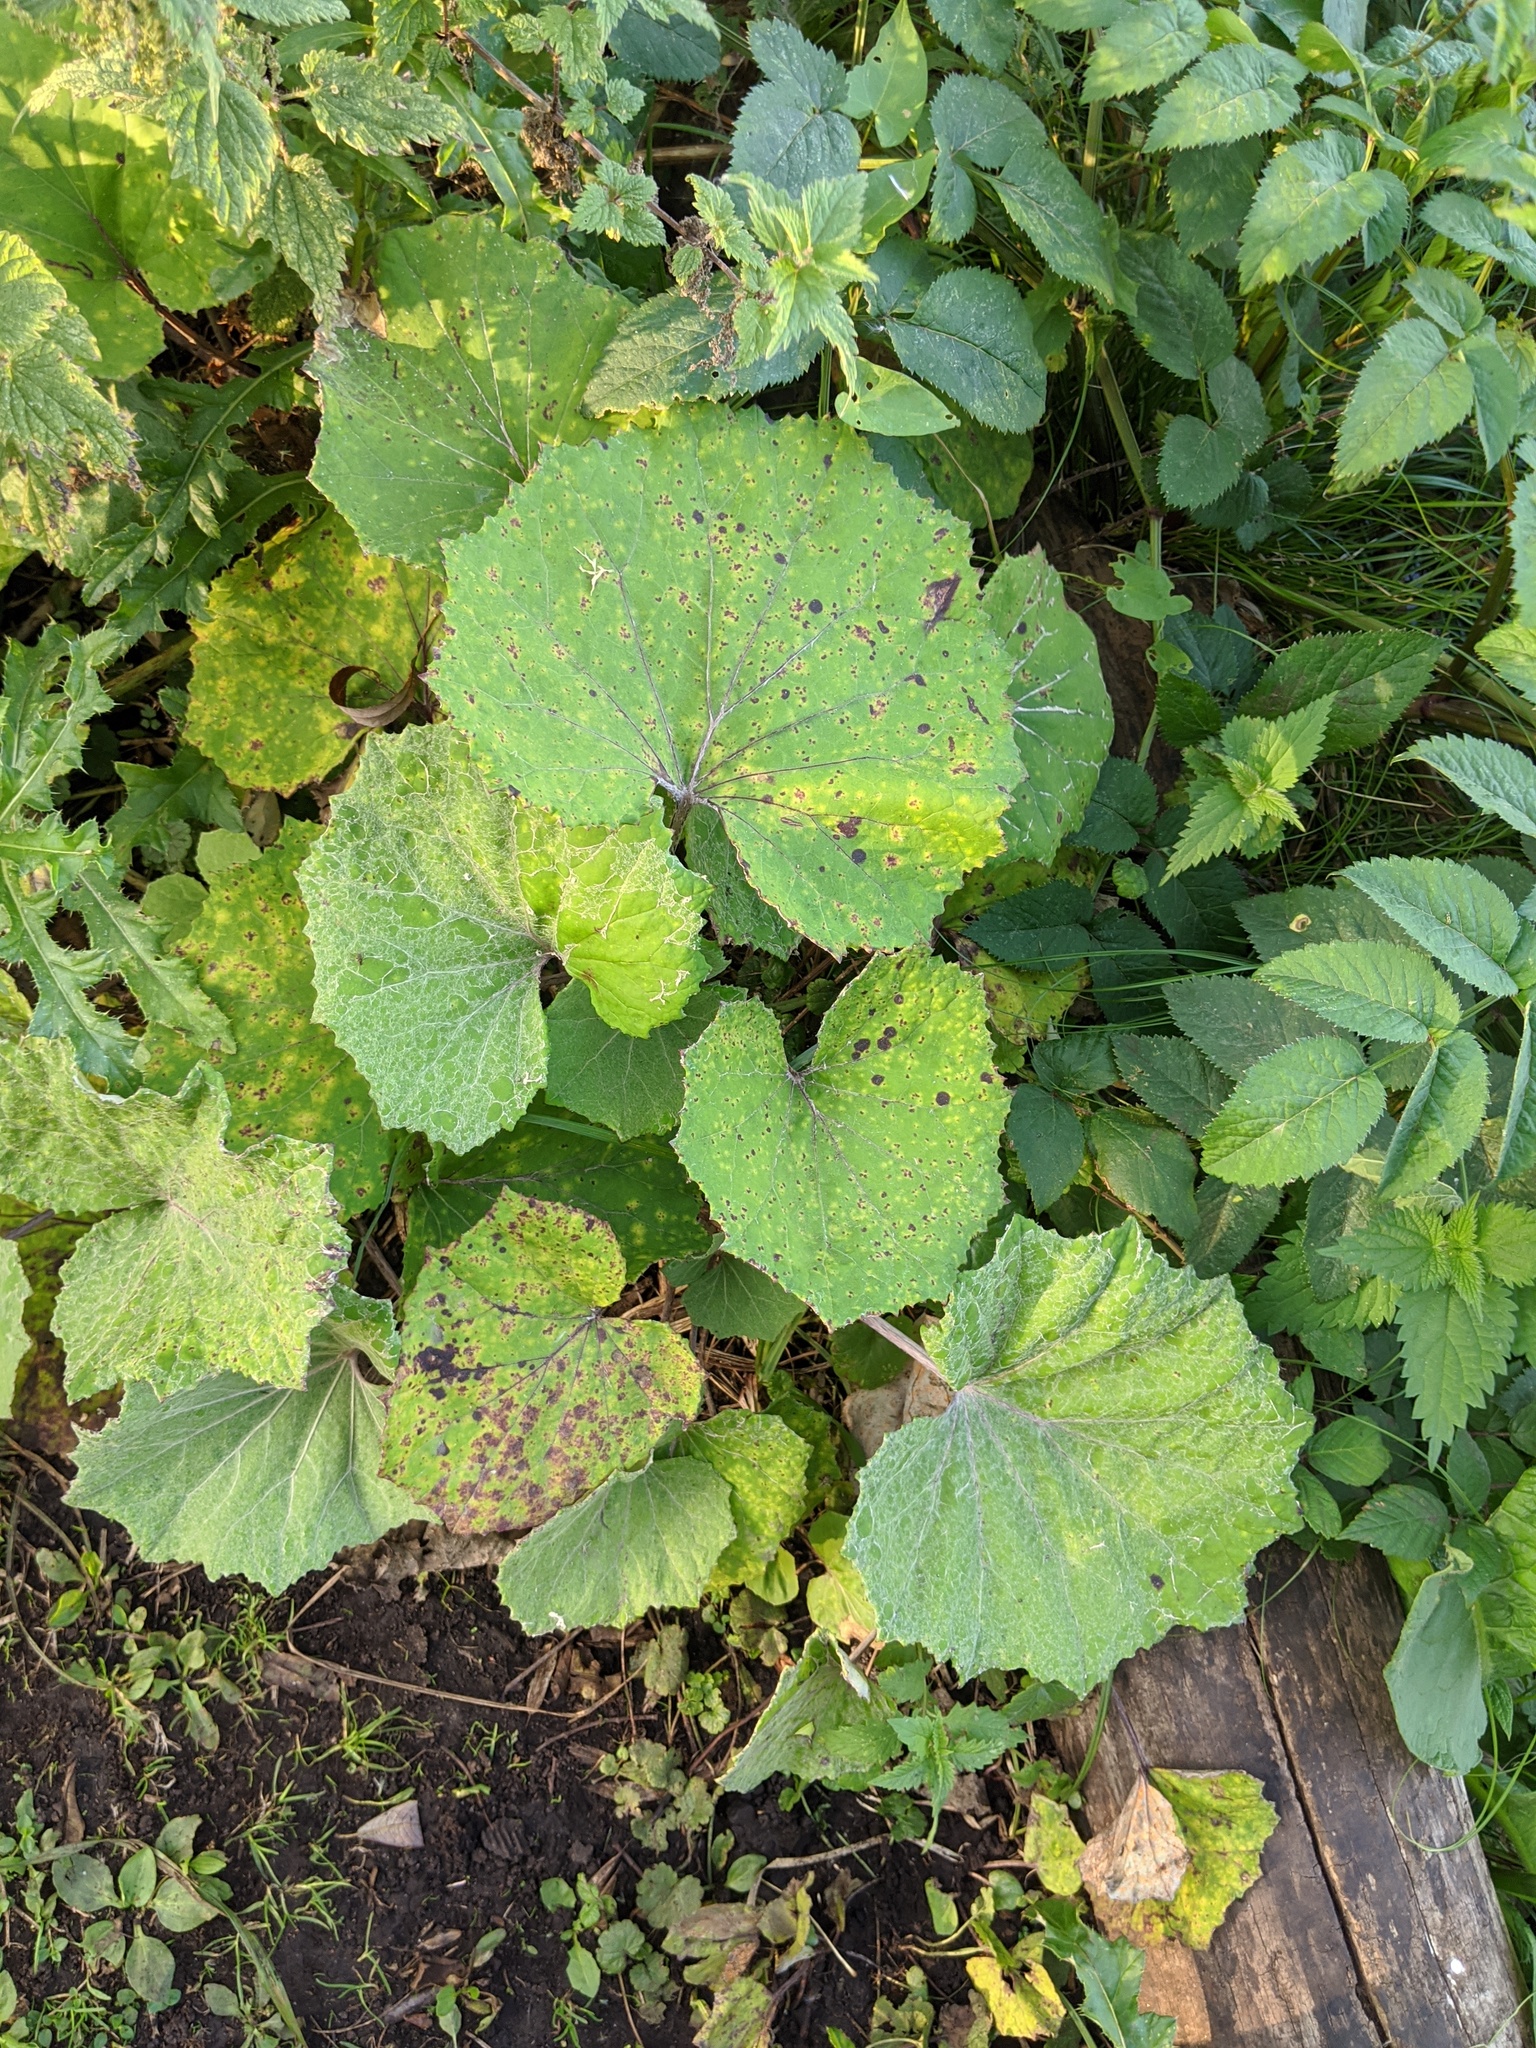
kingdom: Plantae
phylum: Tracheophyta
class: Magnoliopsida
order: Asterales
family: Asteraceae
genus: Tussilago
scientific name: Tussilago farfara
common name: Coltsfoot
